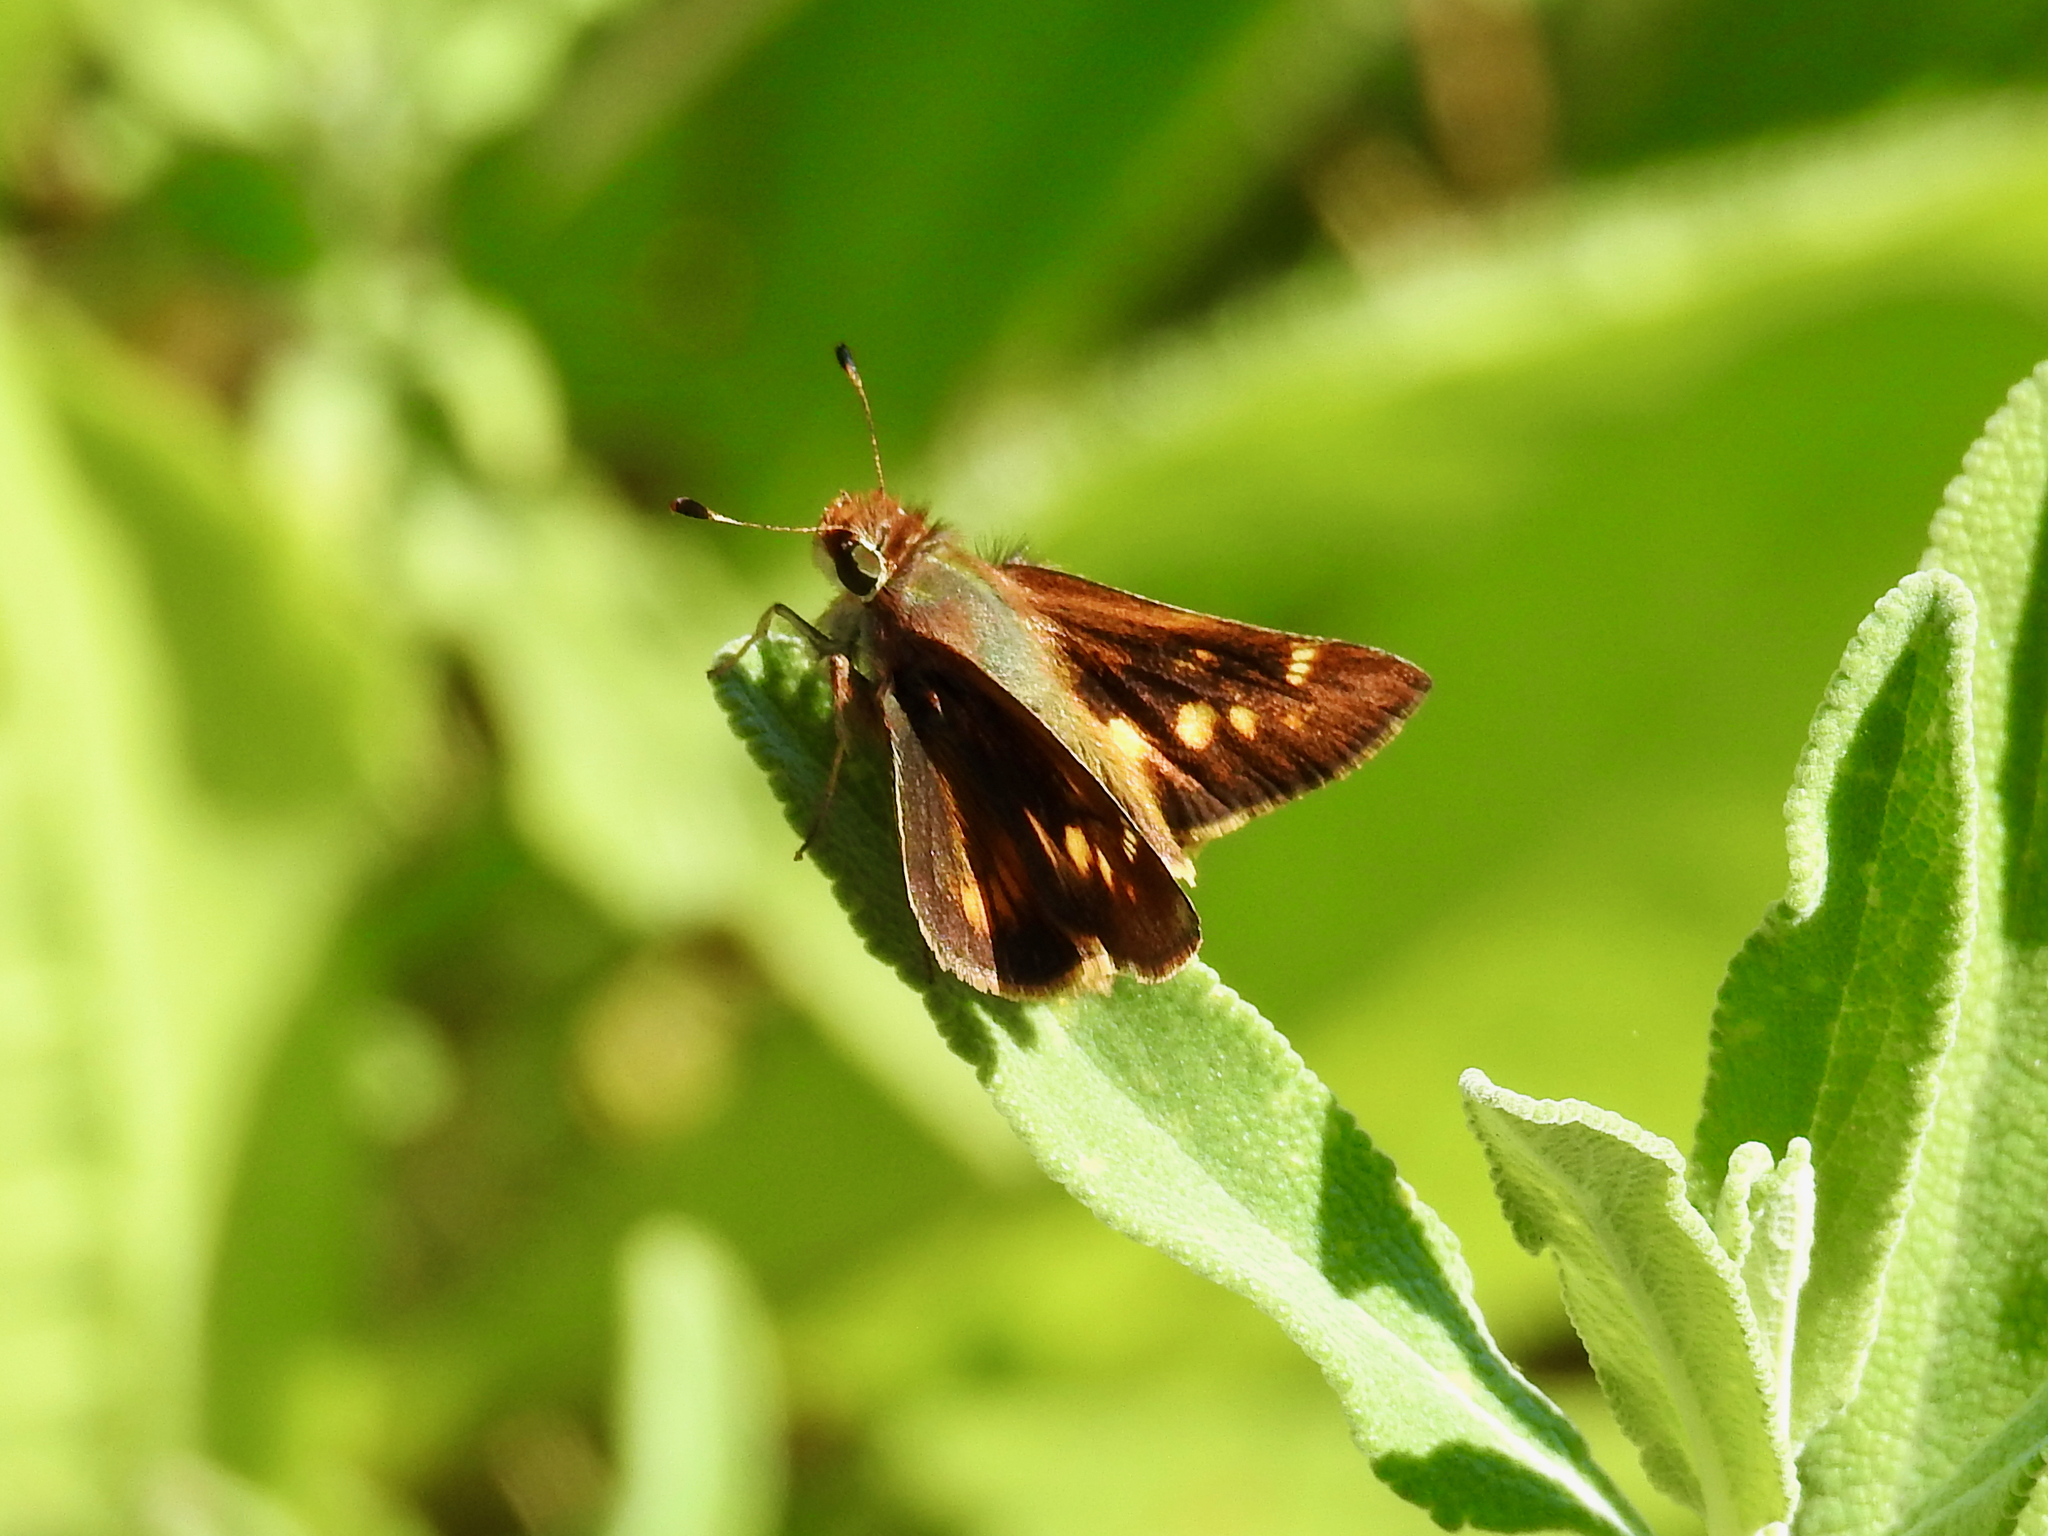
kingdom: Animalia
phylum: Arthropoda
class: Insecta
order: Lepidoptera
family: Hesperiidae
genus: Lon
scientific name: Lon melane
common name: Umber skipper
